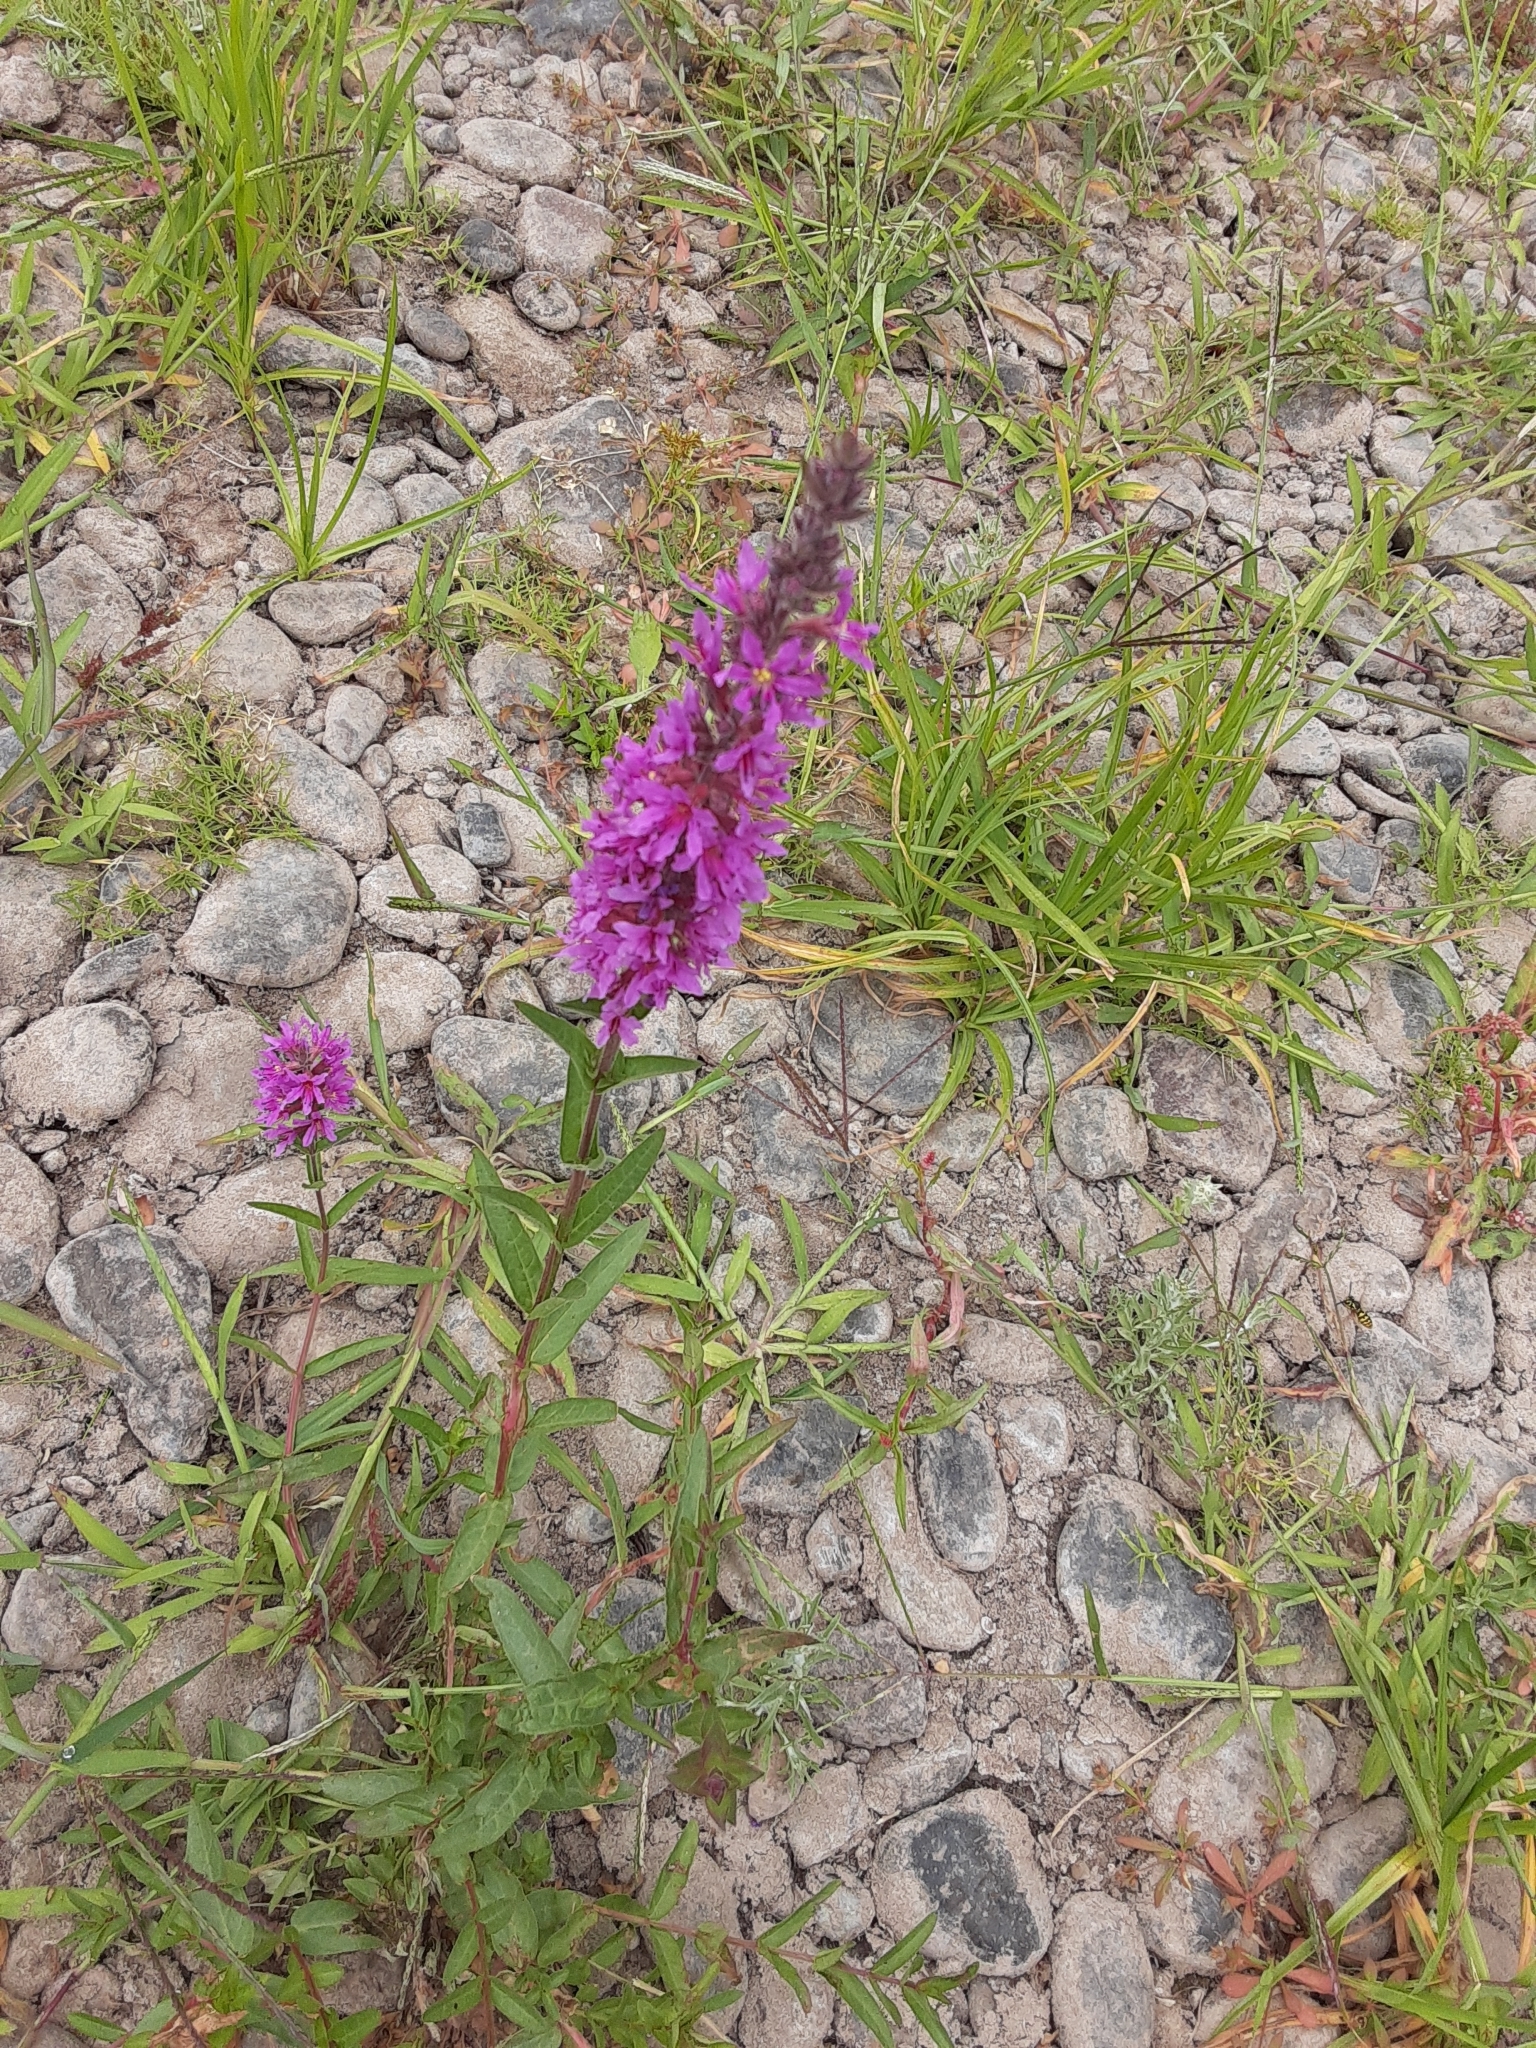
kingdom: Plantae
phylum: Tracheophyta
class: Magnoliopsida
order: Myrtales
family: Lythraceae
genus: Lythrum
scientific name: Lythrum salicaria
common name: Purple loosestrife
